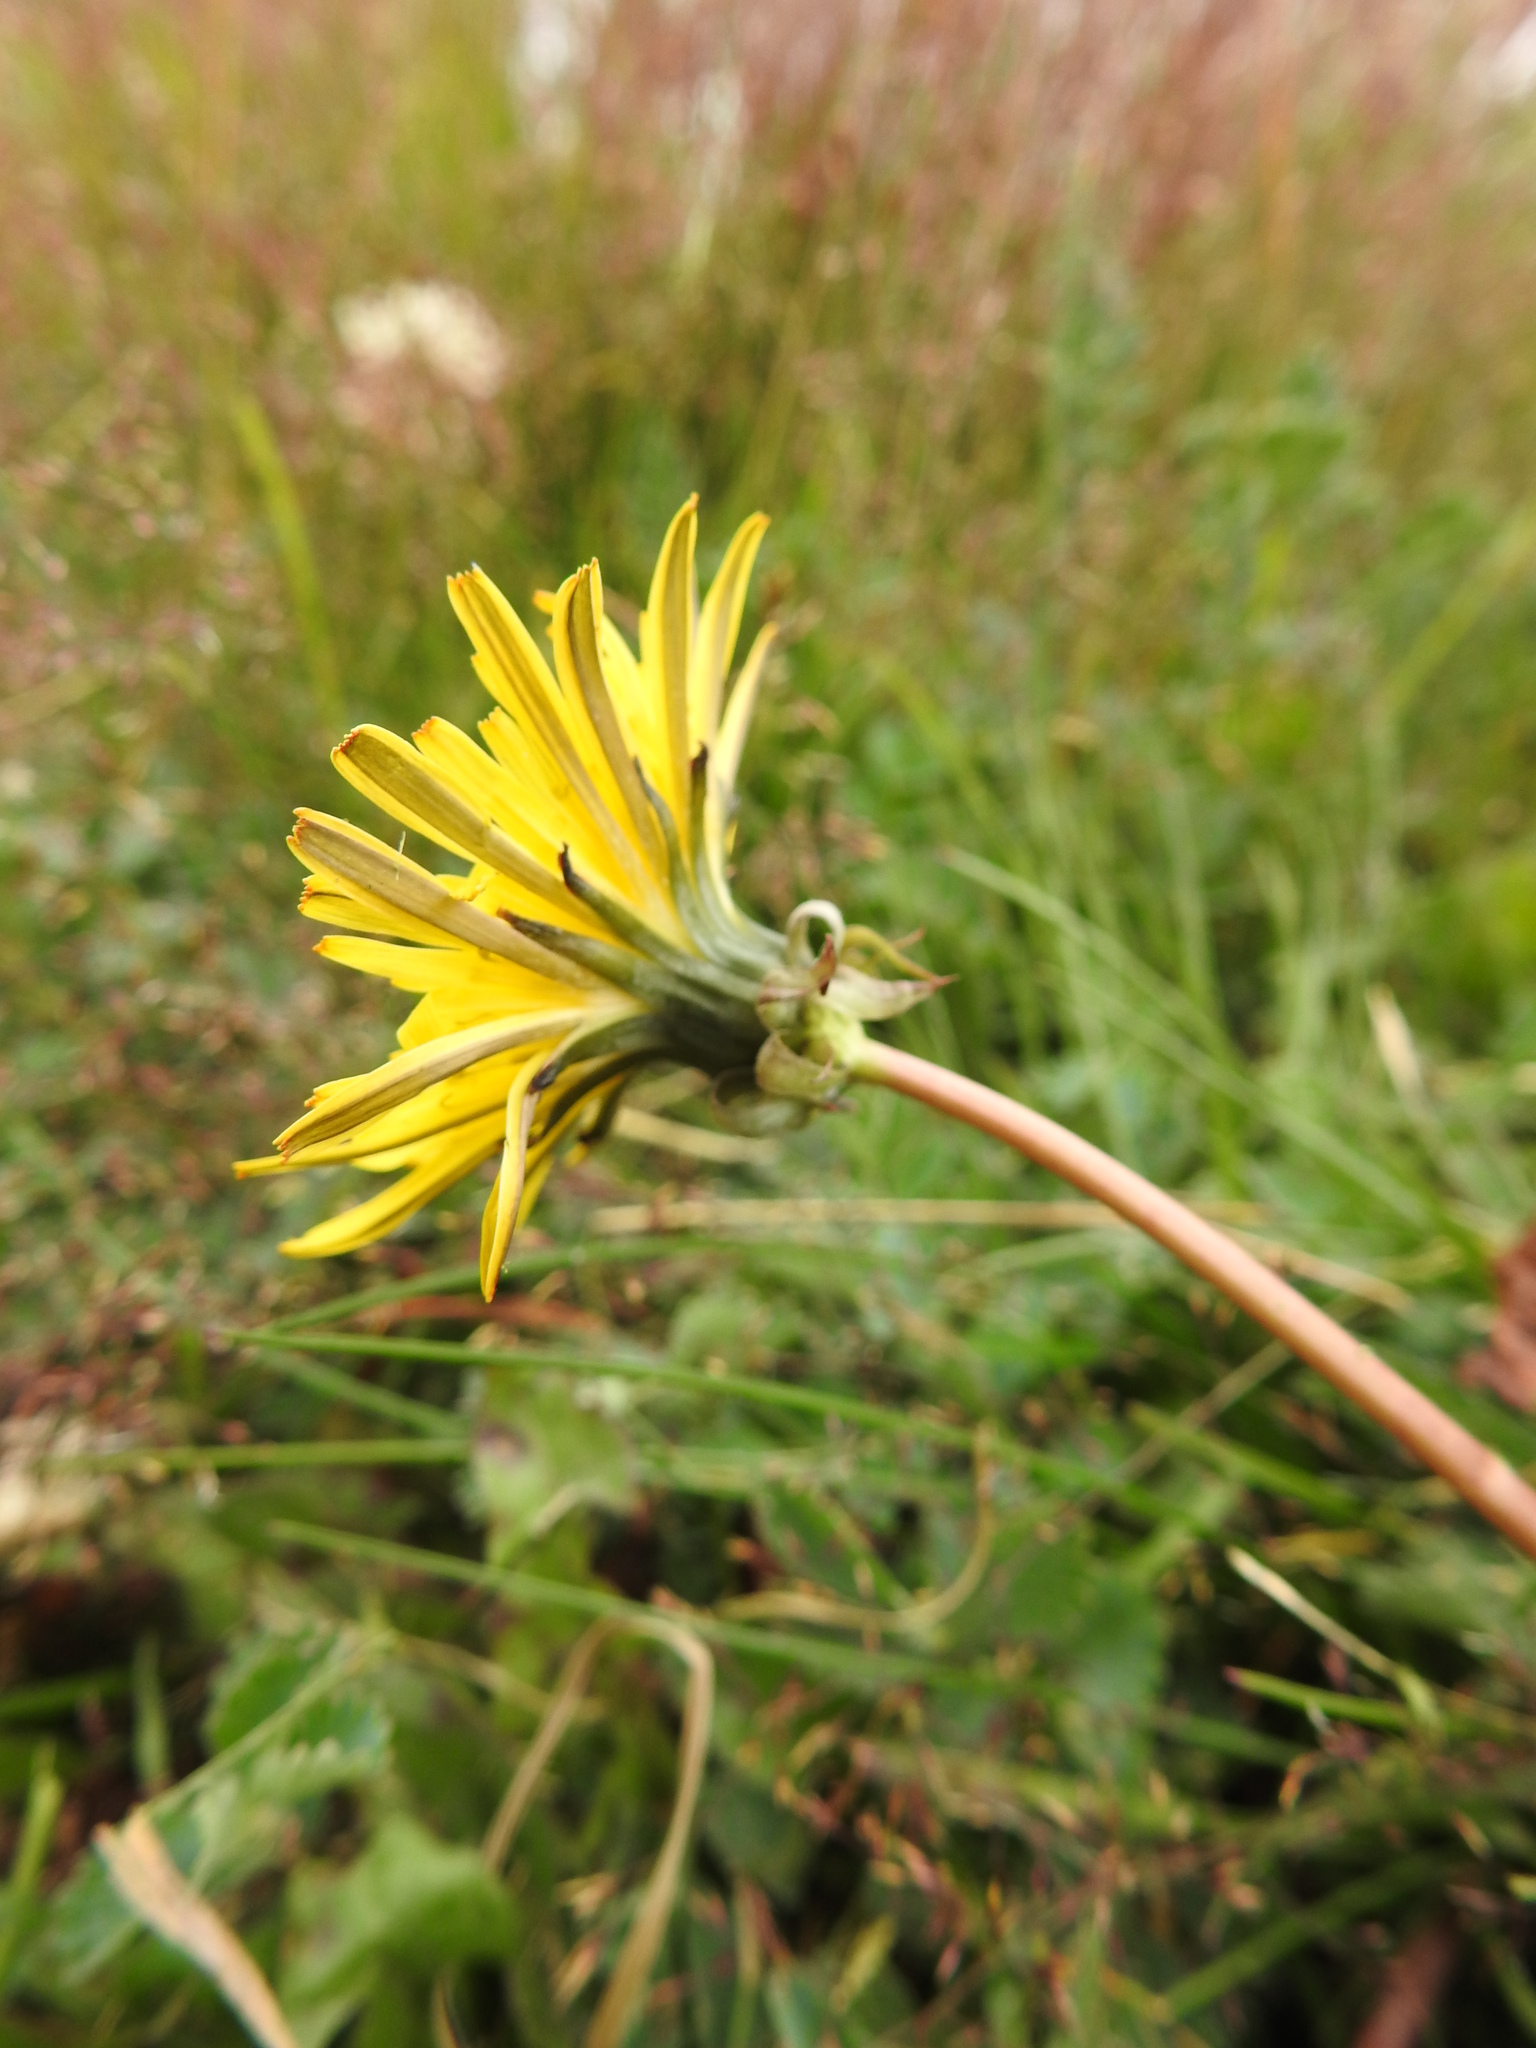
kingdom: Plantae
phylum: Tracheophyta
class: Magnoliopsida
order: Asterales
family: Asteraceae
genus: Taraxacum
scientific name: Taraxacum officinale
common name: Common dandelion
